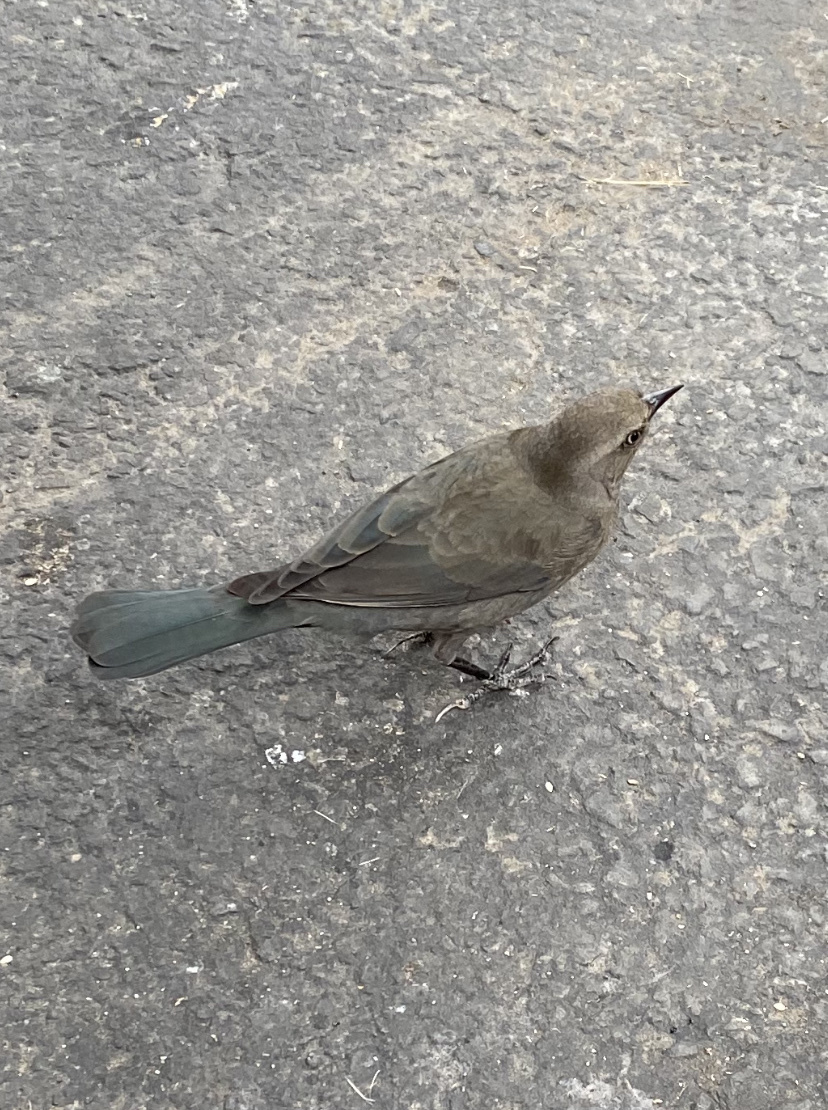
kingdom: Animalia
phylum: Chordata
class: Aves
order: Passeriformes
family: Icteridae
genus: Euphagus
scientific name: Euphagus cyanocephalus
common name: Brewer's blackbird
